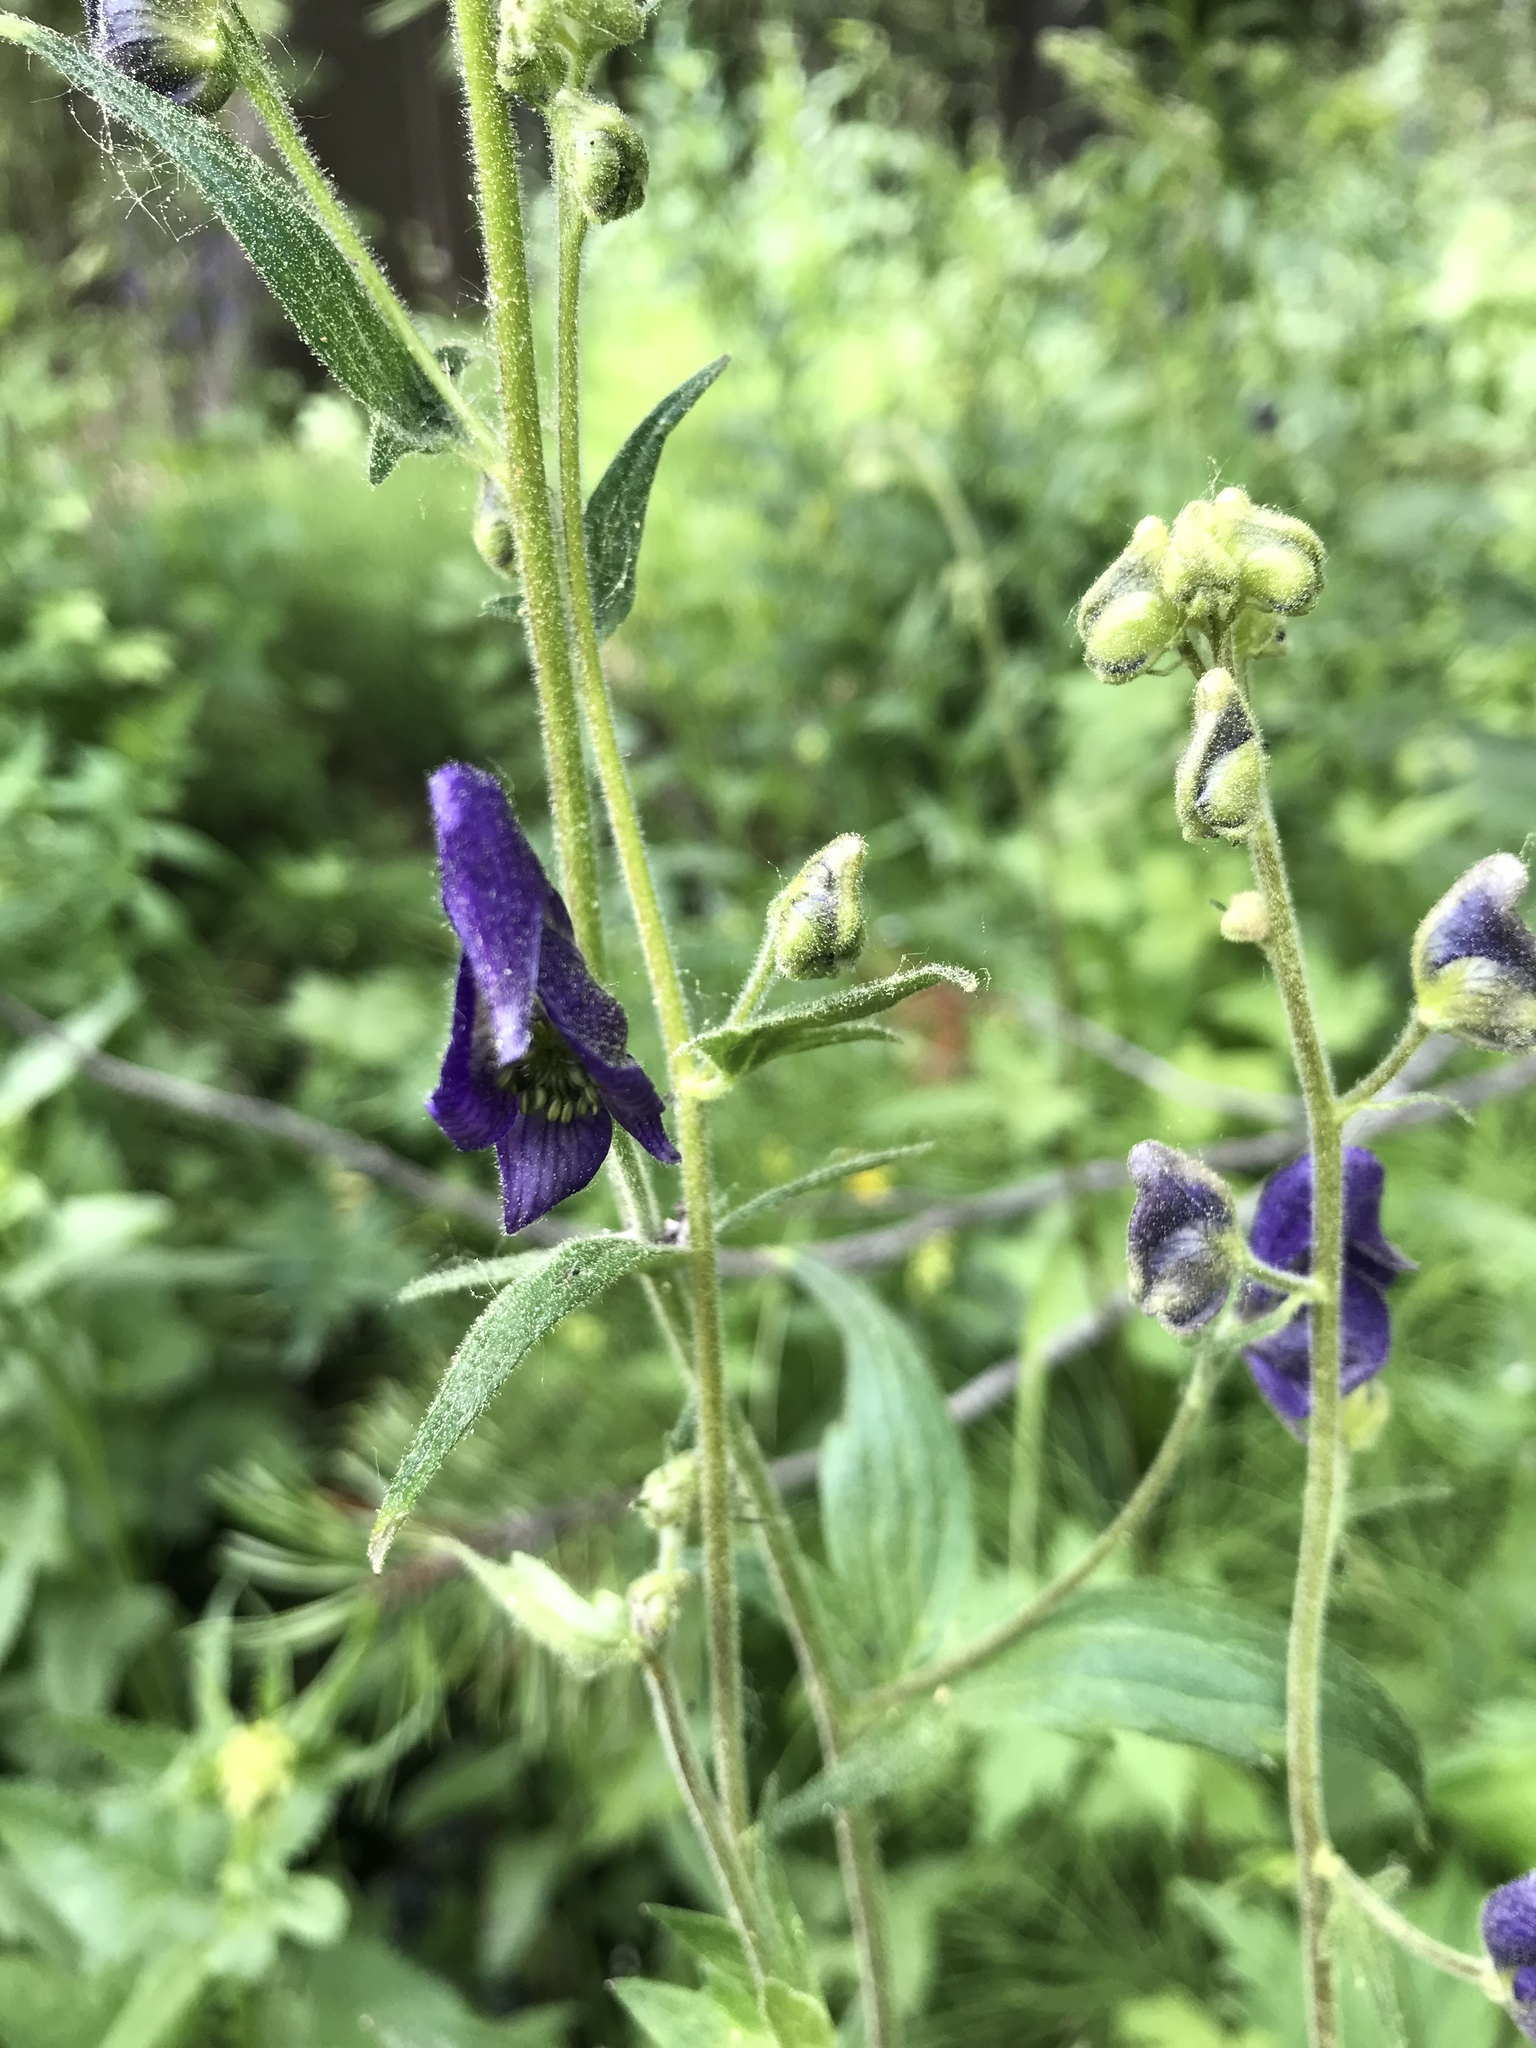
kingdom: Plantae
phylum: Tracheophyta
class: Magnoliopsida
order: Ranunculales
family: Ranunculaceae
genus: Aconitum
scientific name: Aconitum columbianum
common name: Columbia aconite
